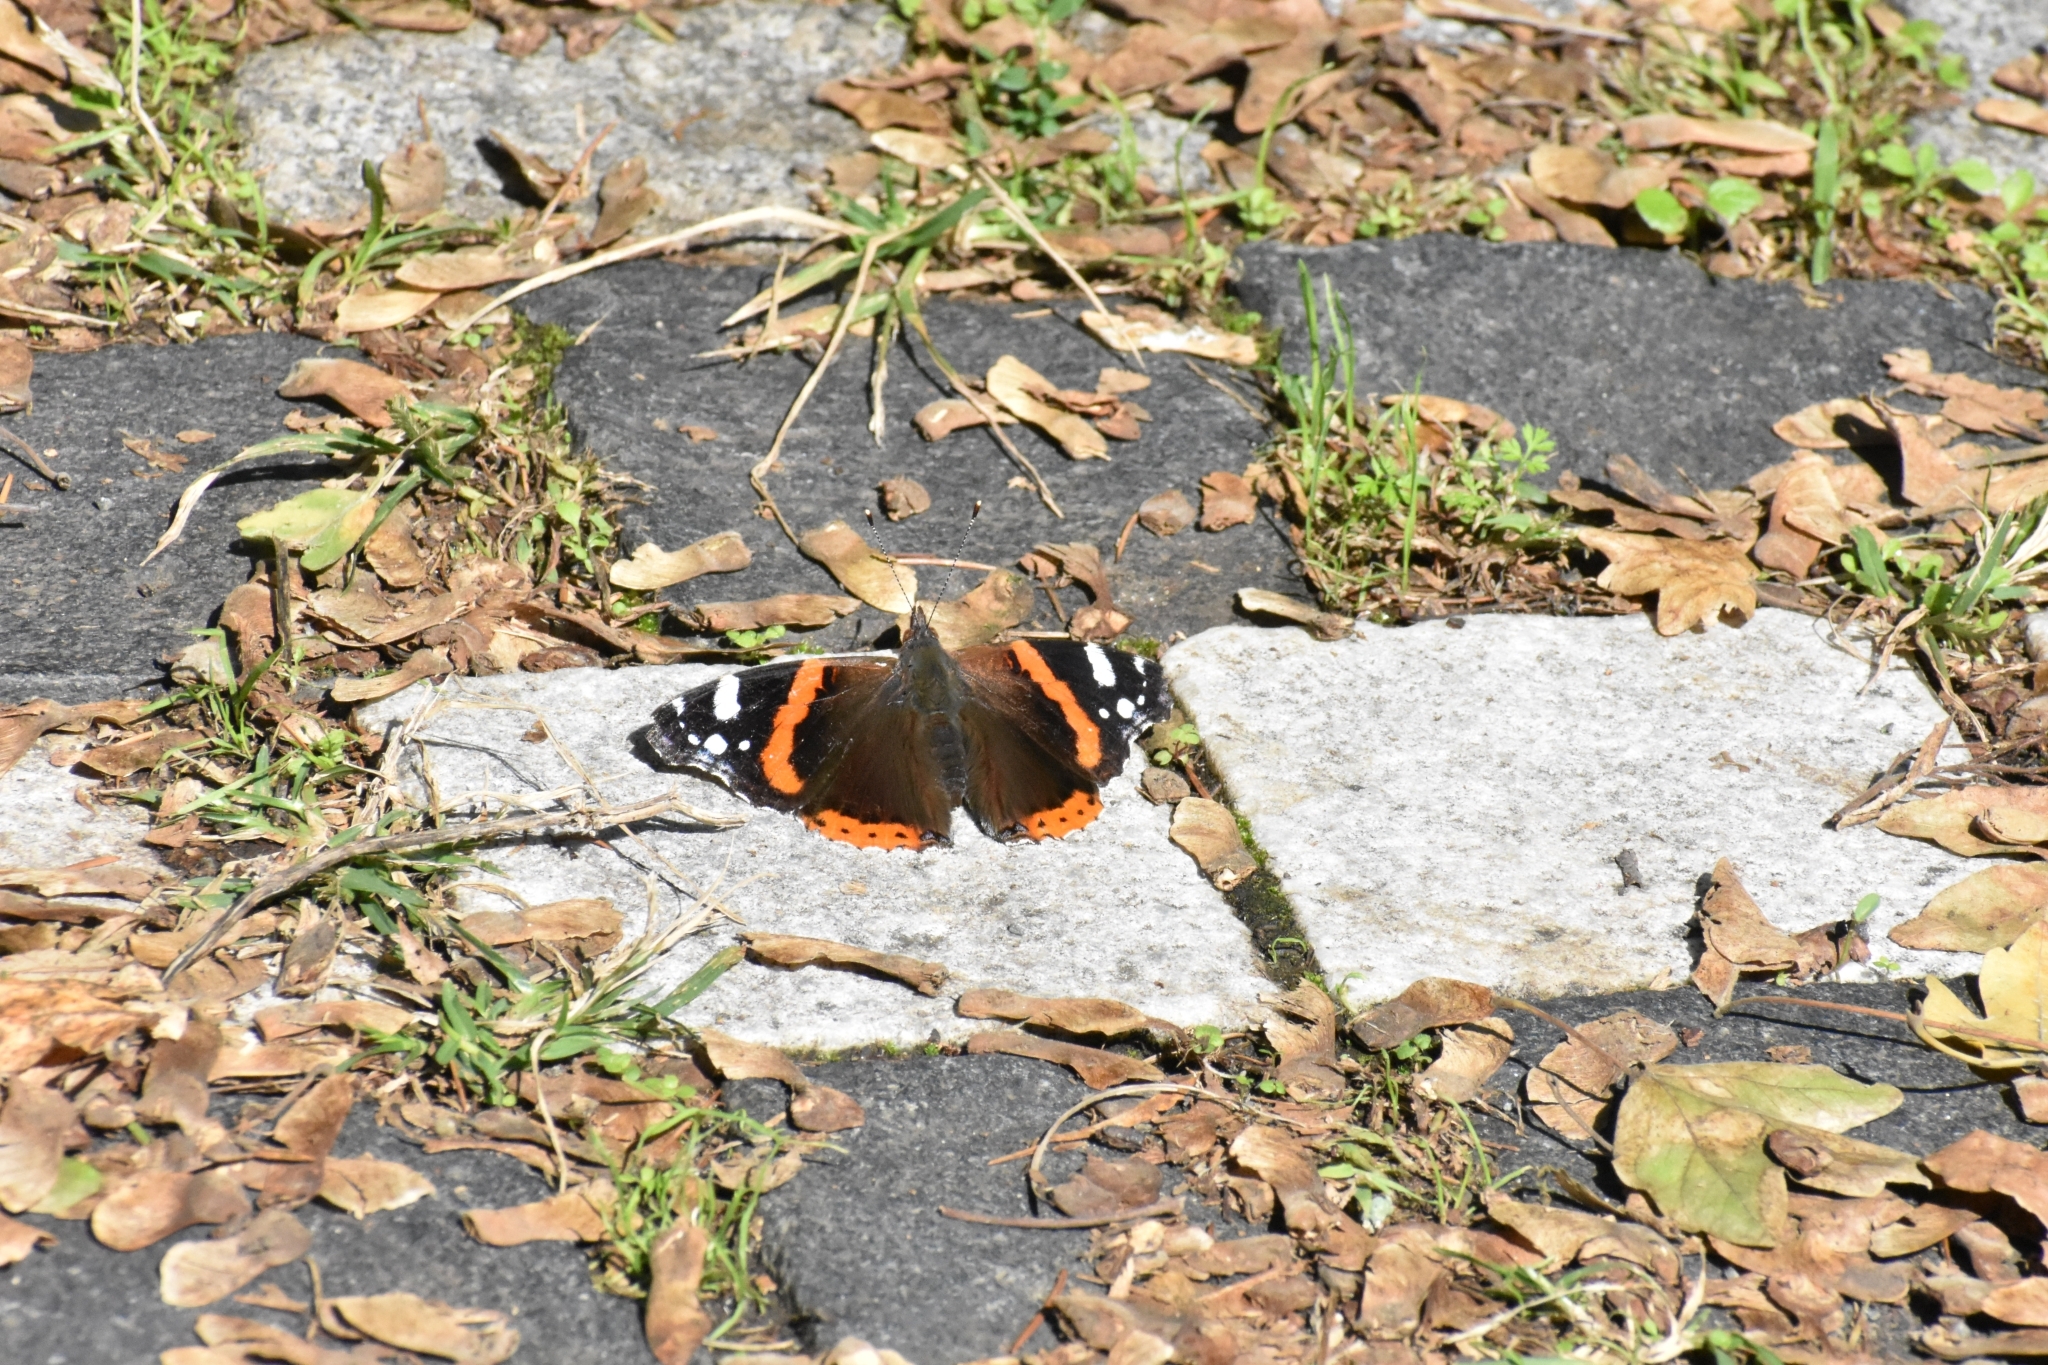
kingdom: Animalia
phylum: Arthropoda
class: Insecta
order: Lepidoptera
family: Nymphalidae
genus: Vanessa
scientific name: Vanessa atalanta
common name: Red admiral
